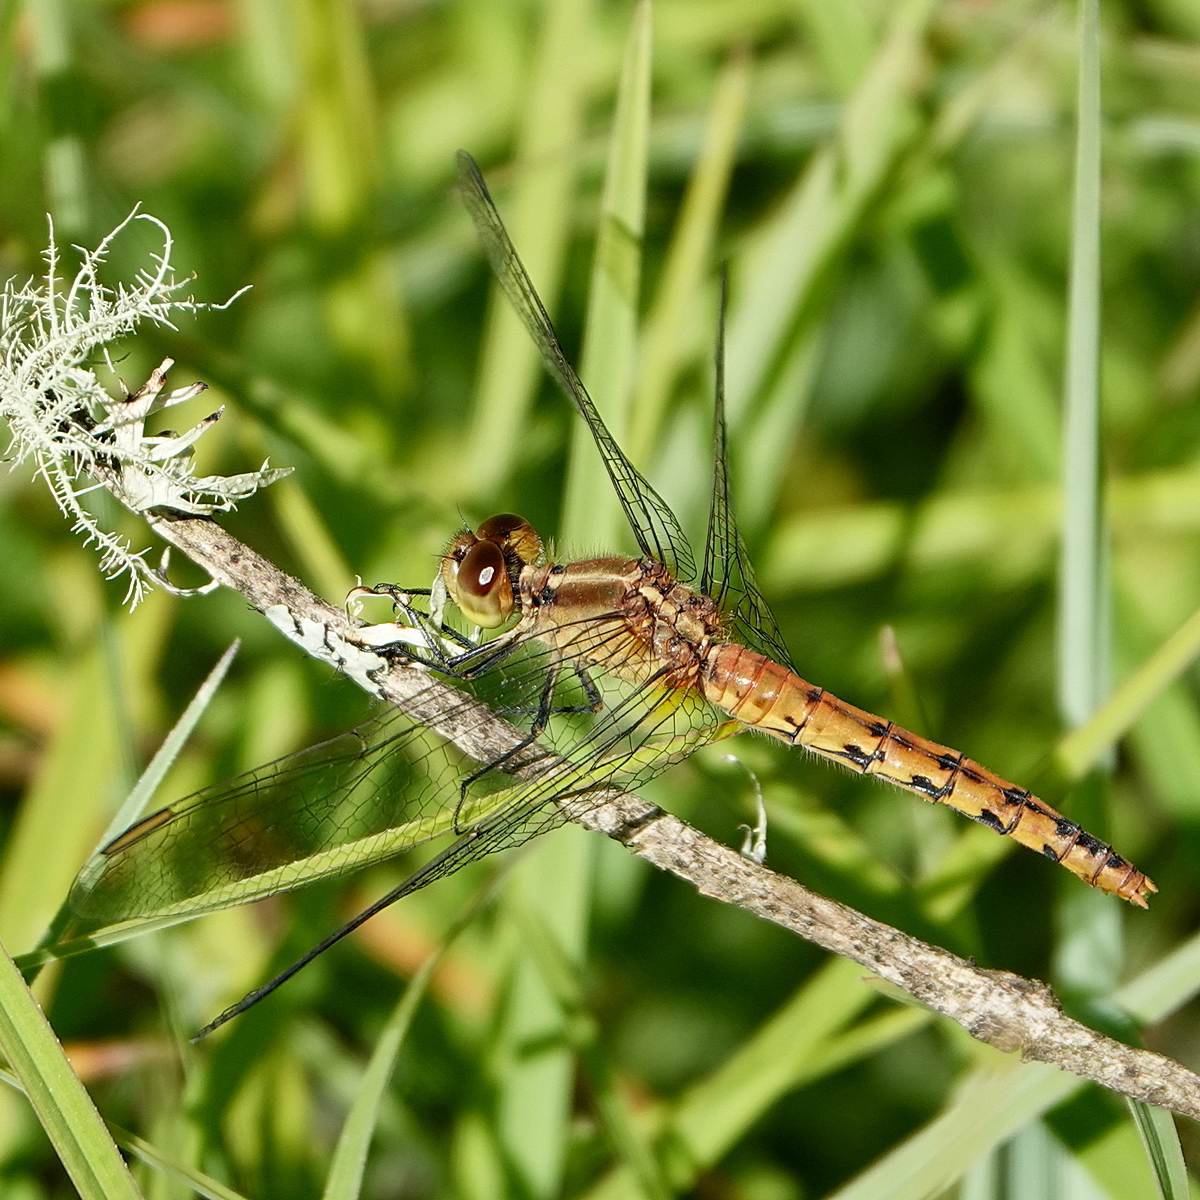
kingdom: Animalia
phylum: Arthropoda
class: Insecta
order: Odonata
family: Libellulidae
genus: Diplacodes
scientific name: Diplacodes melanopsis
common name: Black-faced percher
